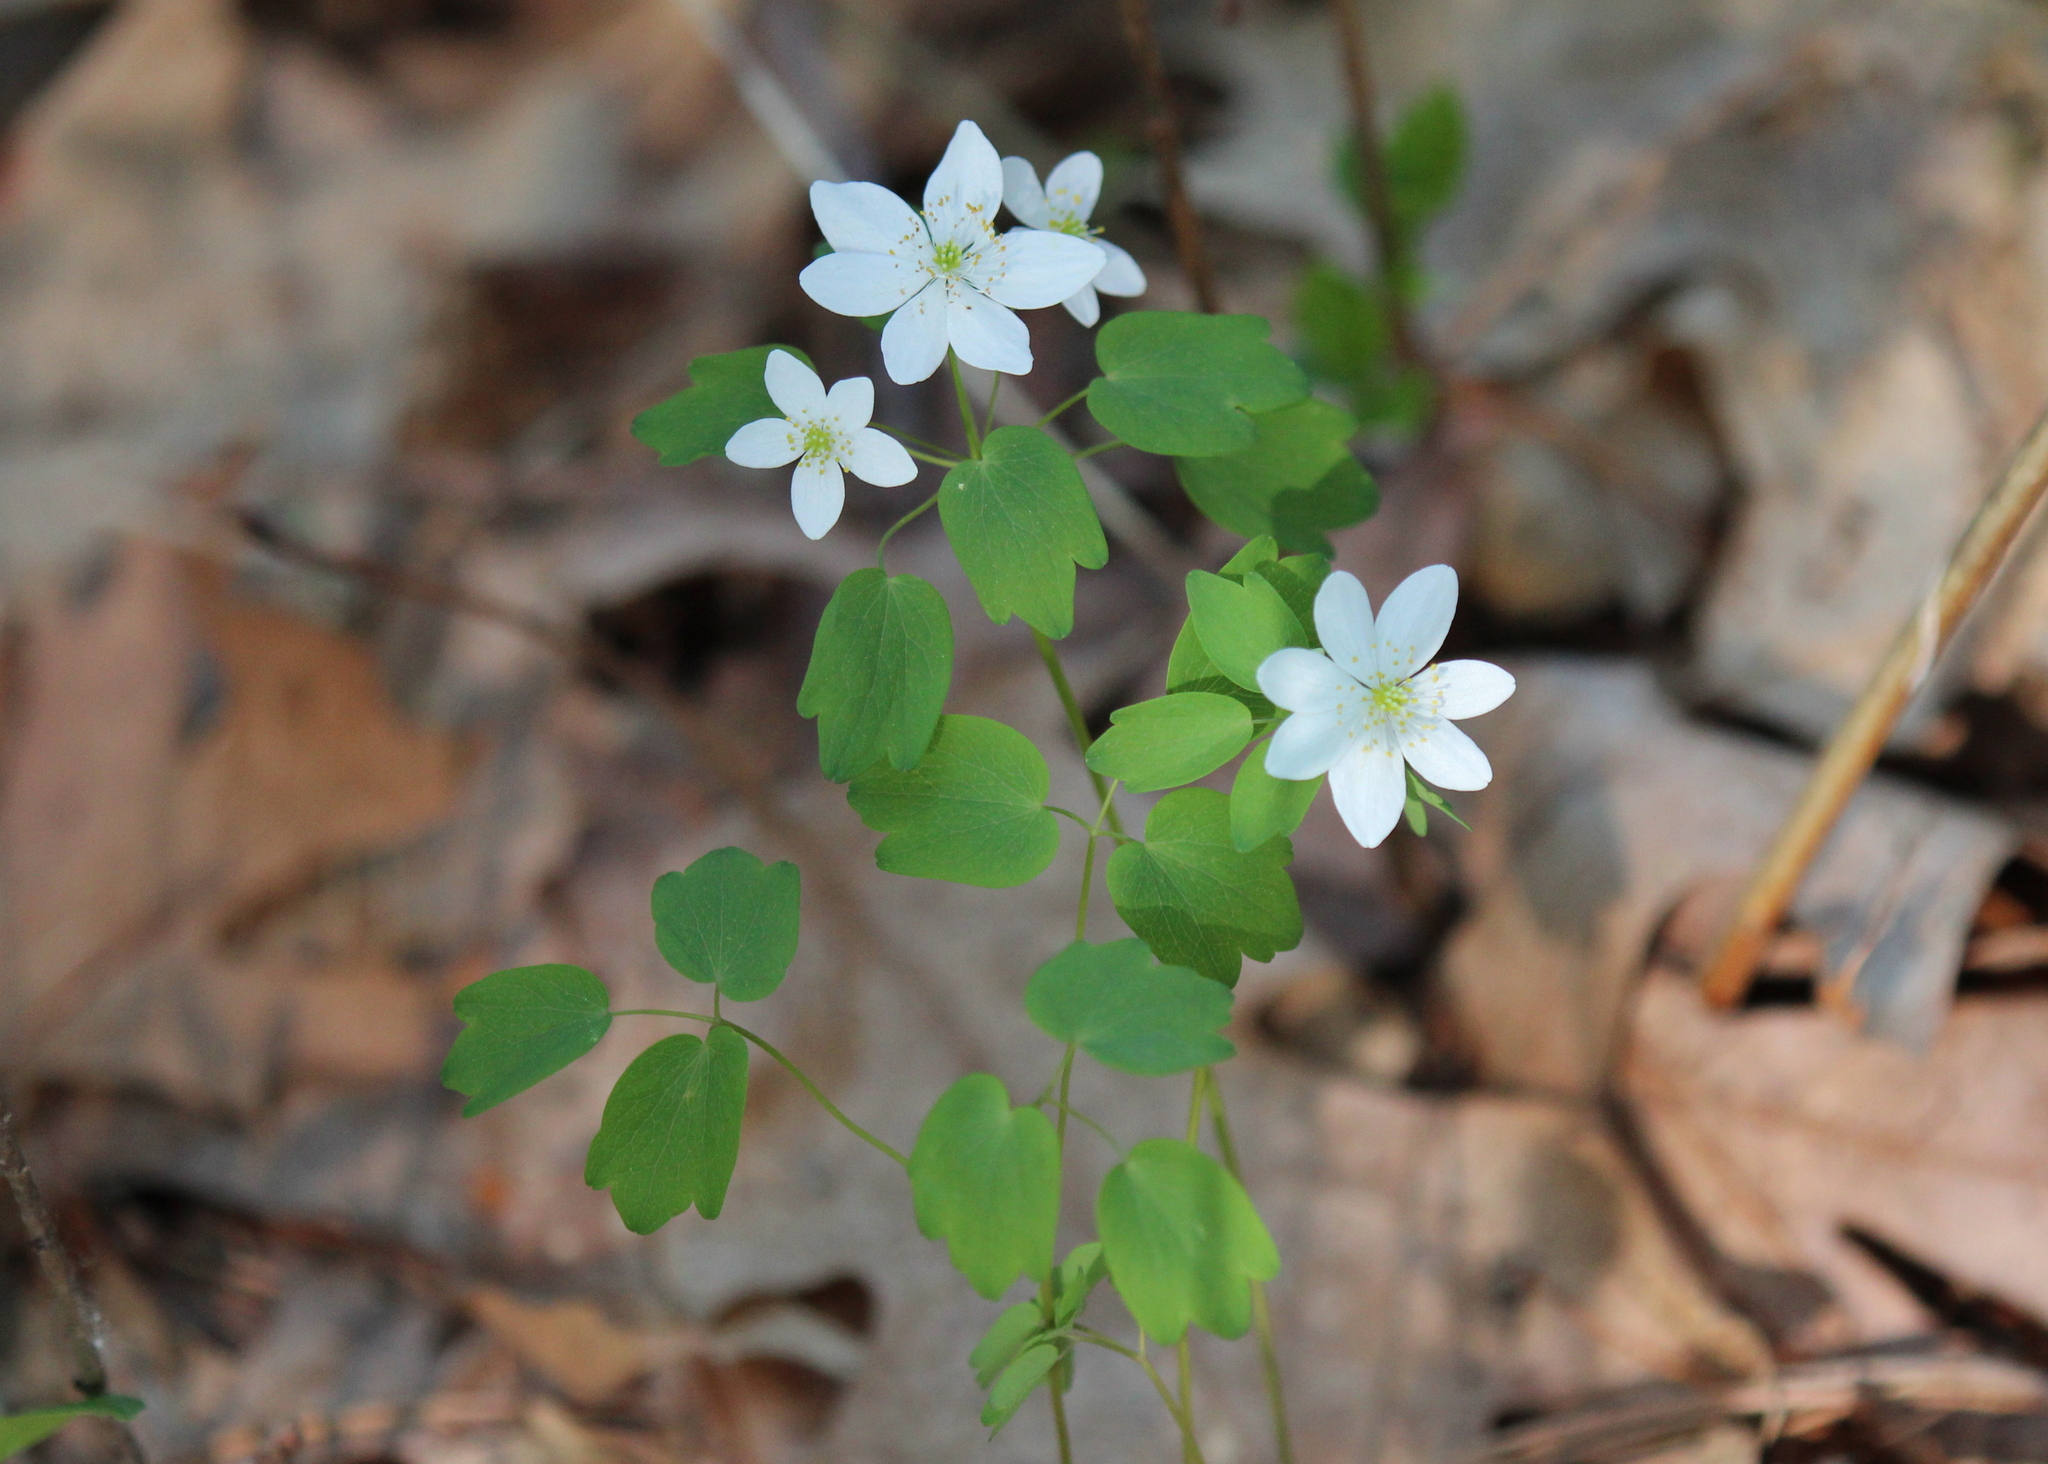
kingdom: Plantae
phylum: Tracheophyta
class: Magnoliopsida
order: Ranunculales
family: Ranunculaceae
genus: Thalictrum
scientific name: Thalictrum thalictroides
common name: Rue-anemone
